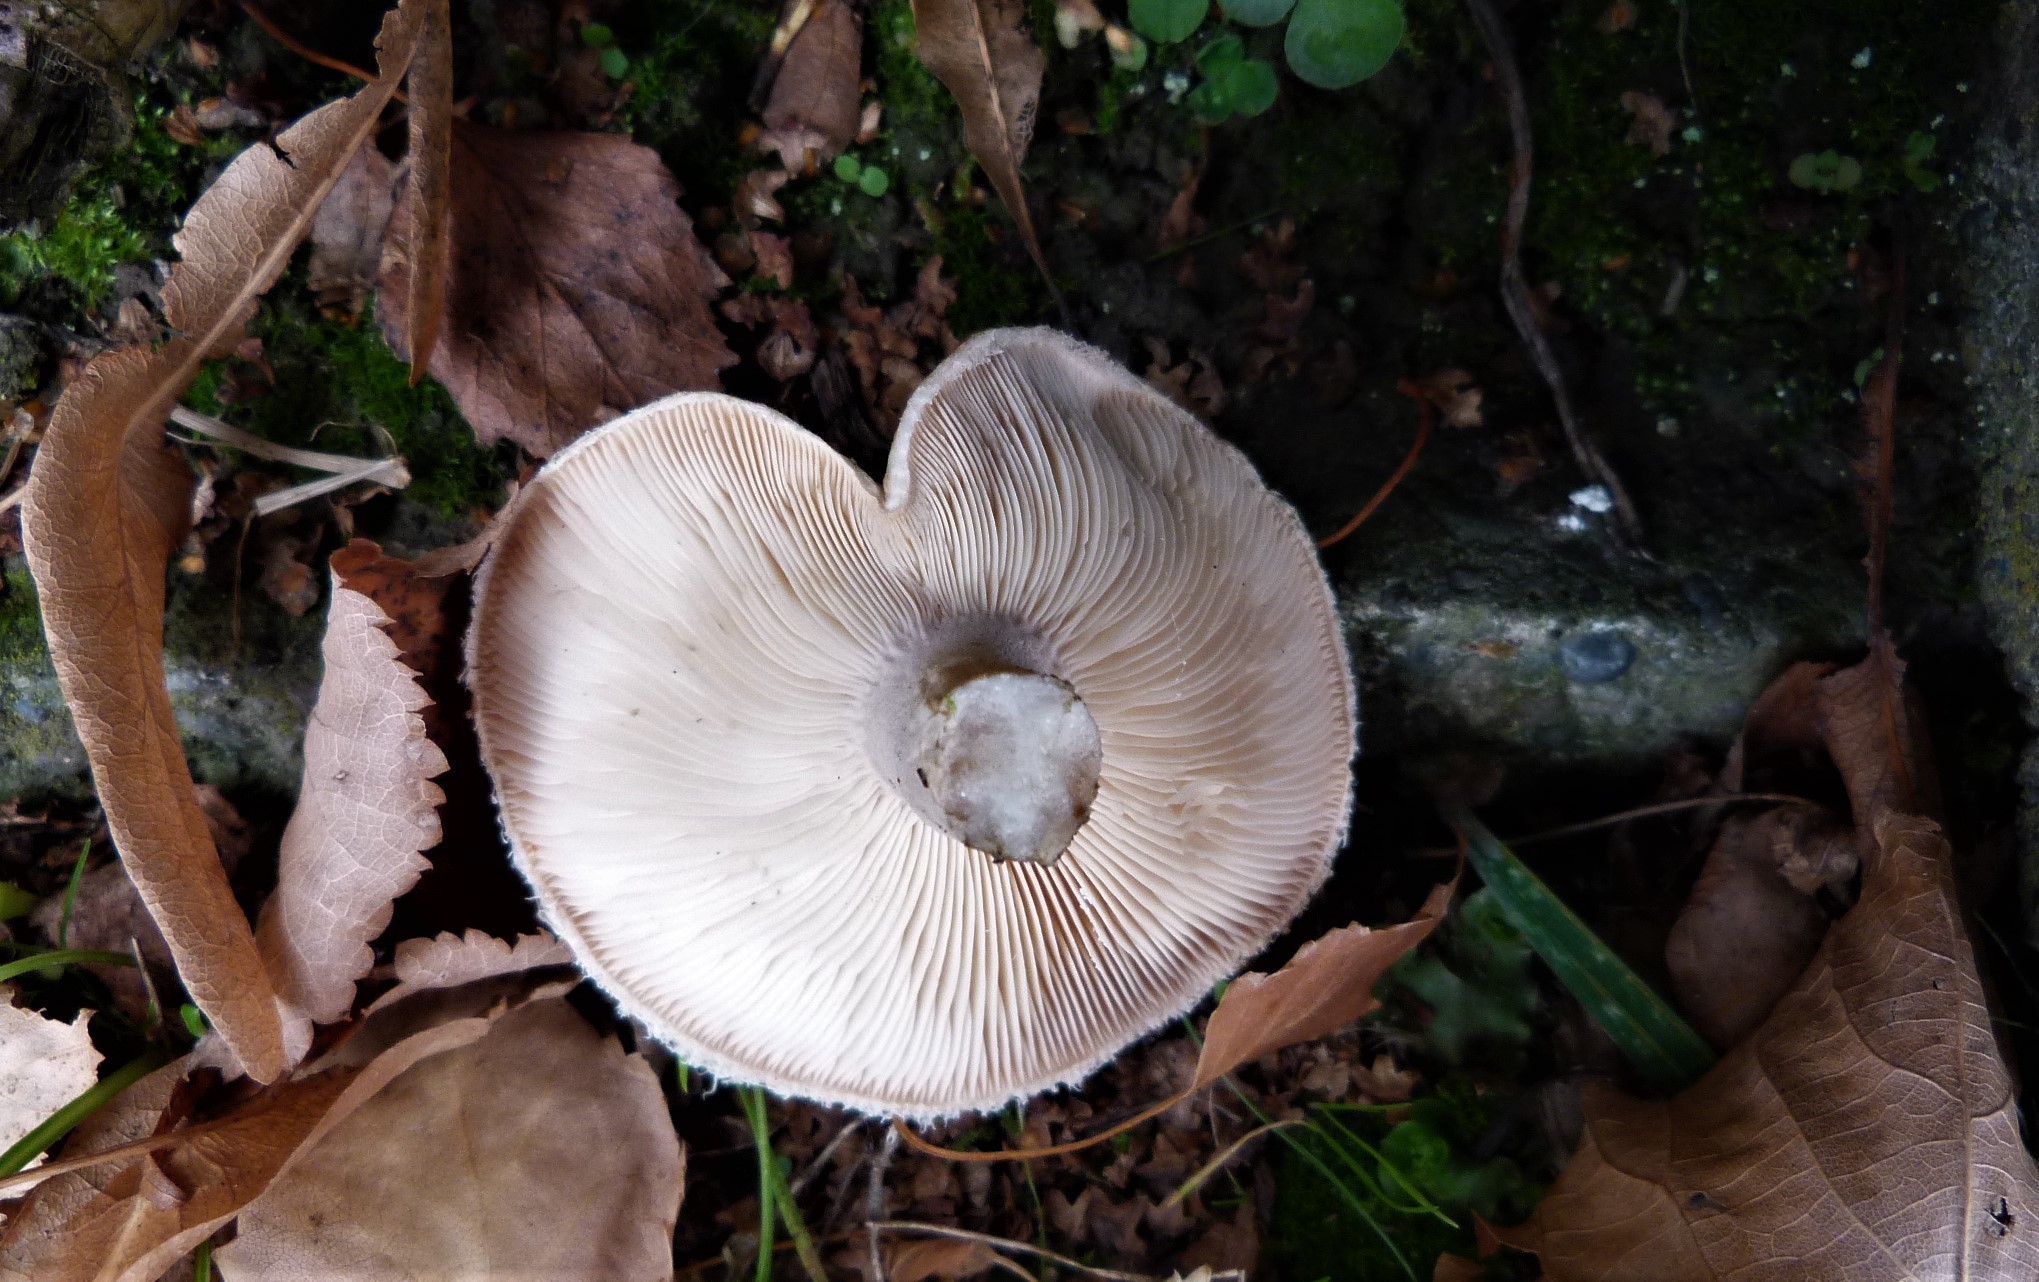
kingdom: Fungi
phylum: Basidiomycota
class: Agaricomycetes
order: Russulales
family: Russulaceae
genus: Lactarius
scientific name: Lactarius pubescens
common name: Bearded milkcap
